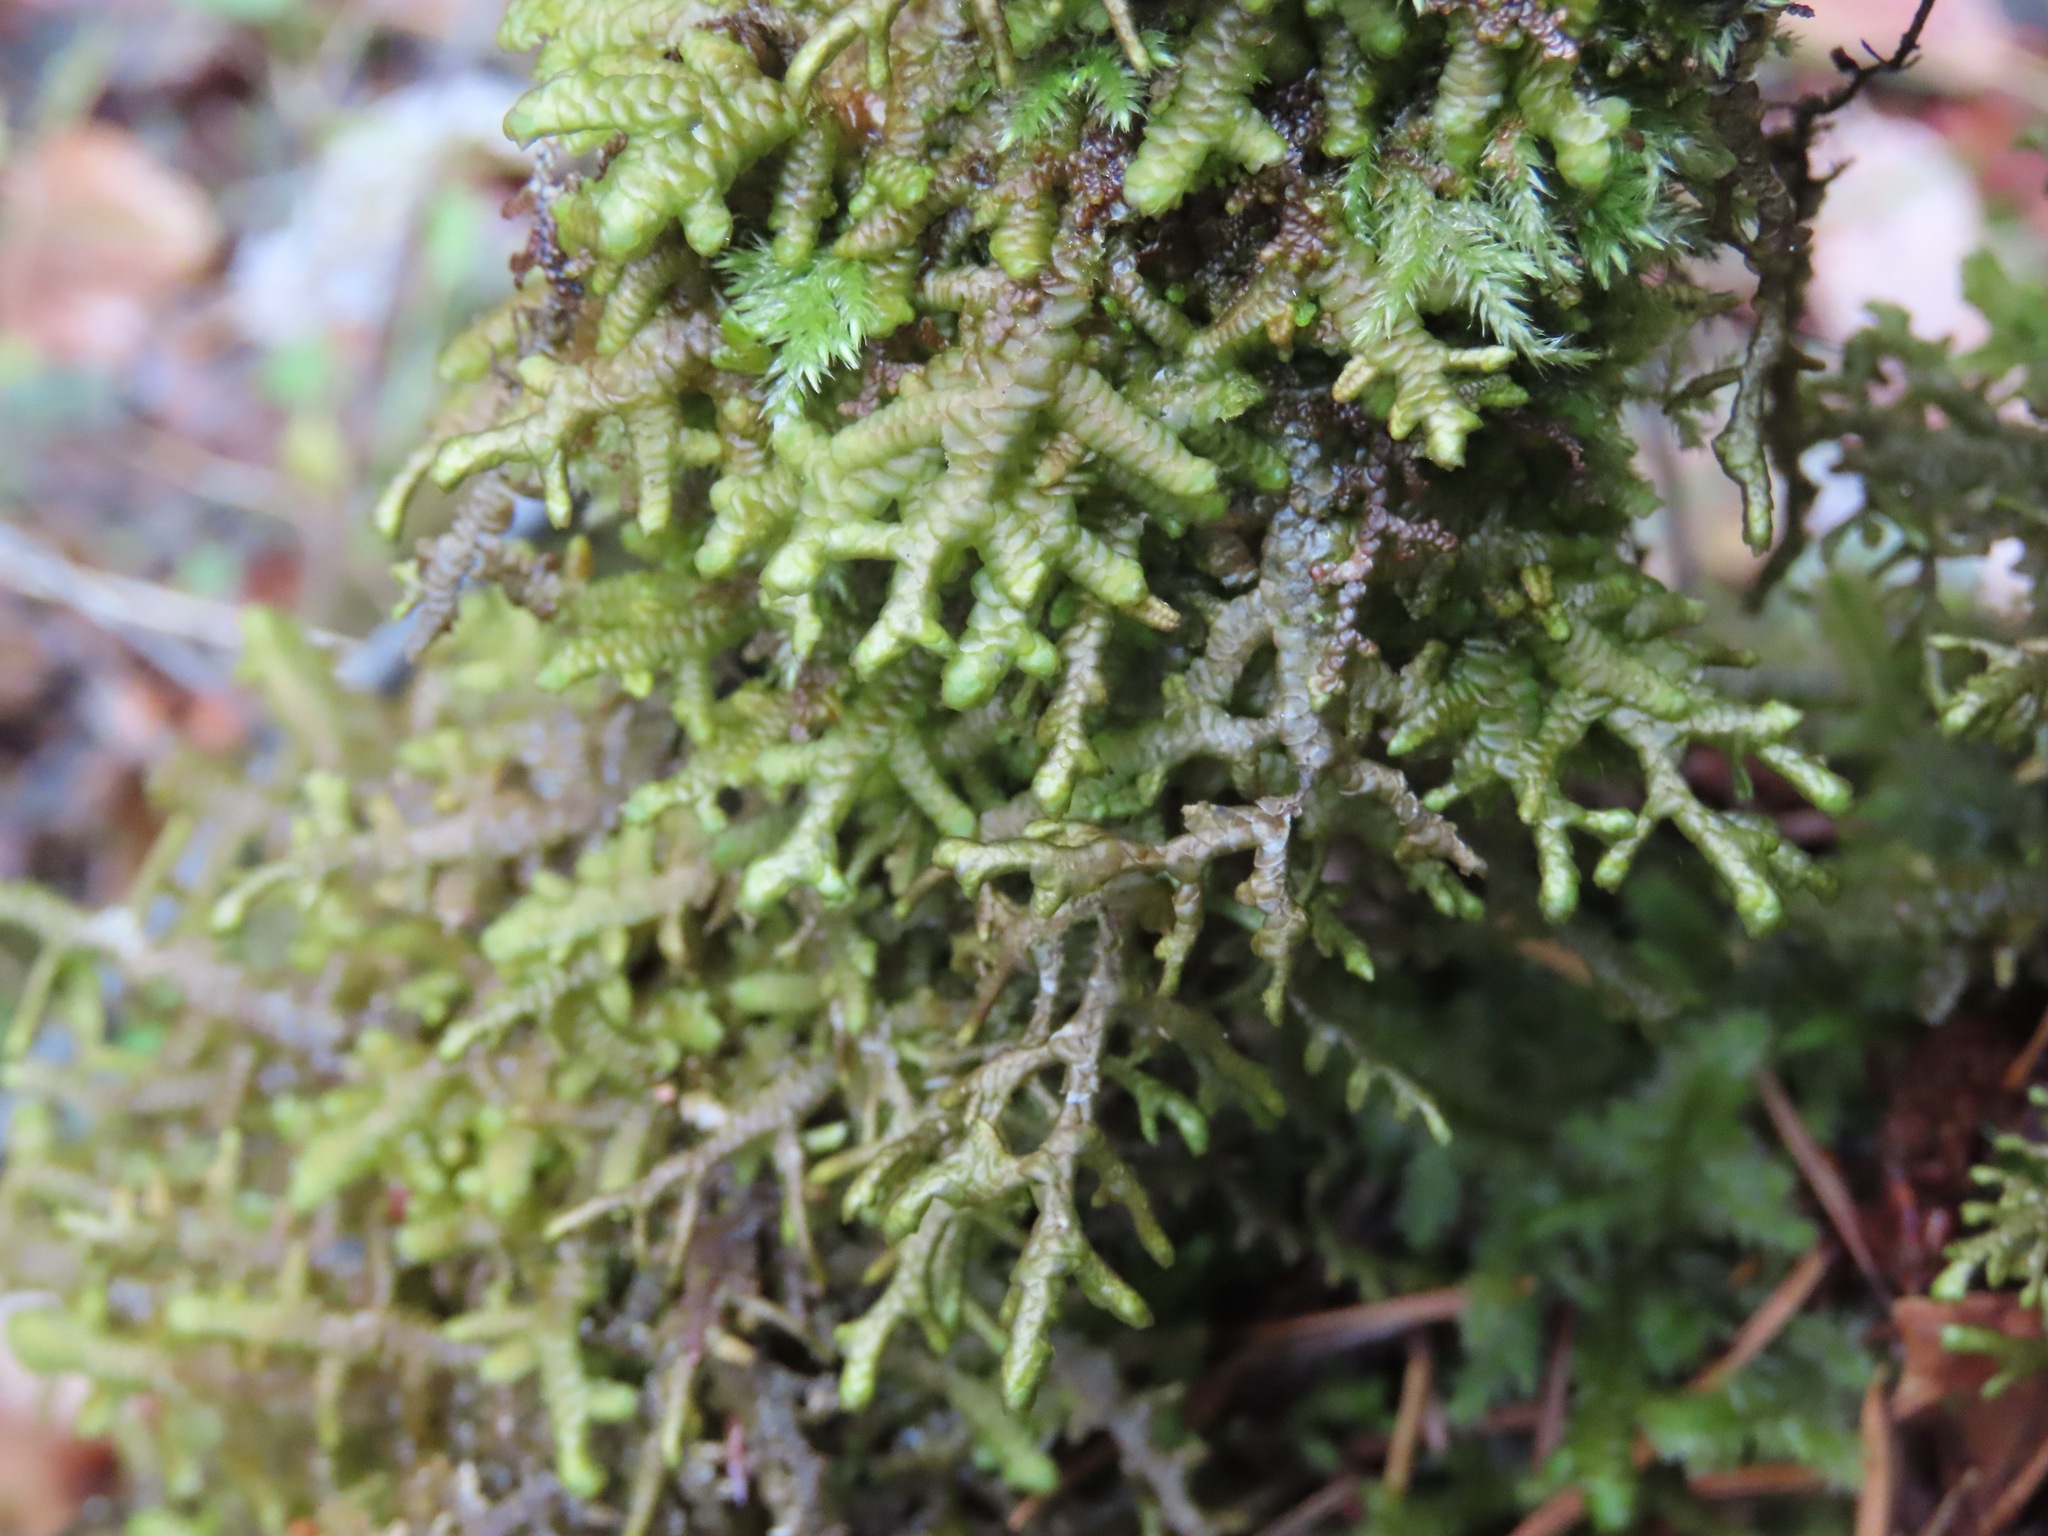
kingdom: Plantae
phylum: Marchantiophyta
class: Jungermanniopsida
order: Porellales
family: Porellaceae
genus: Porella
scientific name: Porella navicularis
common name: Tree ruffle liverwort
